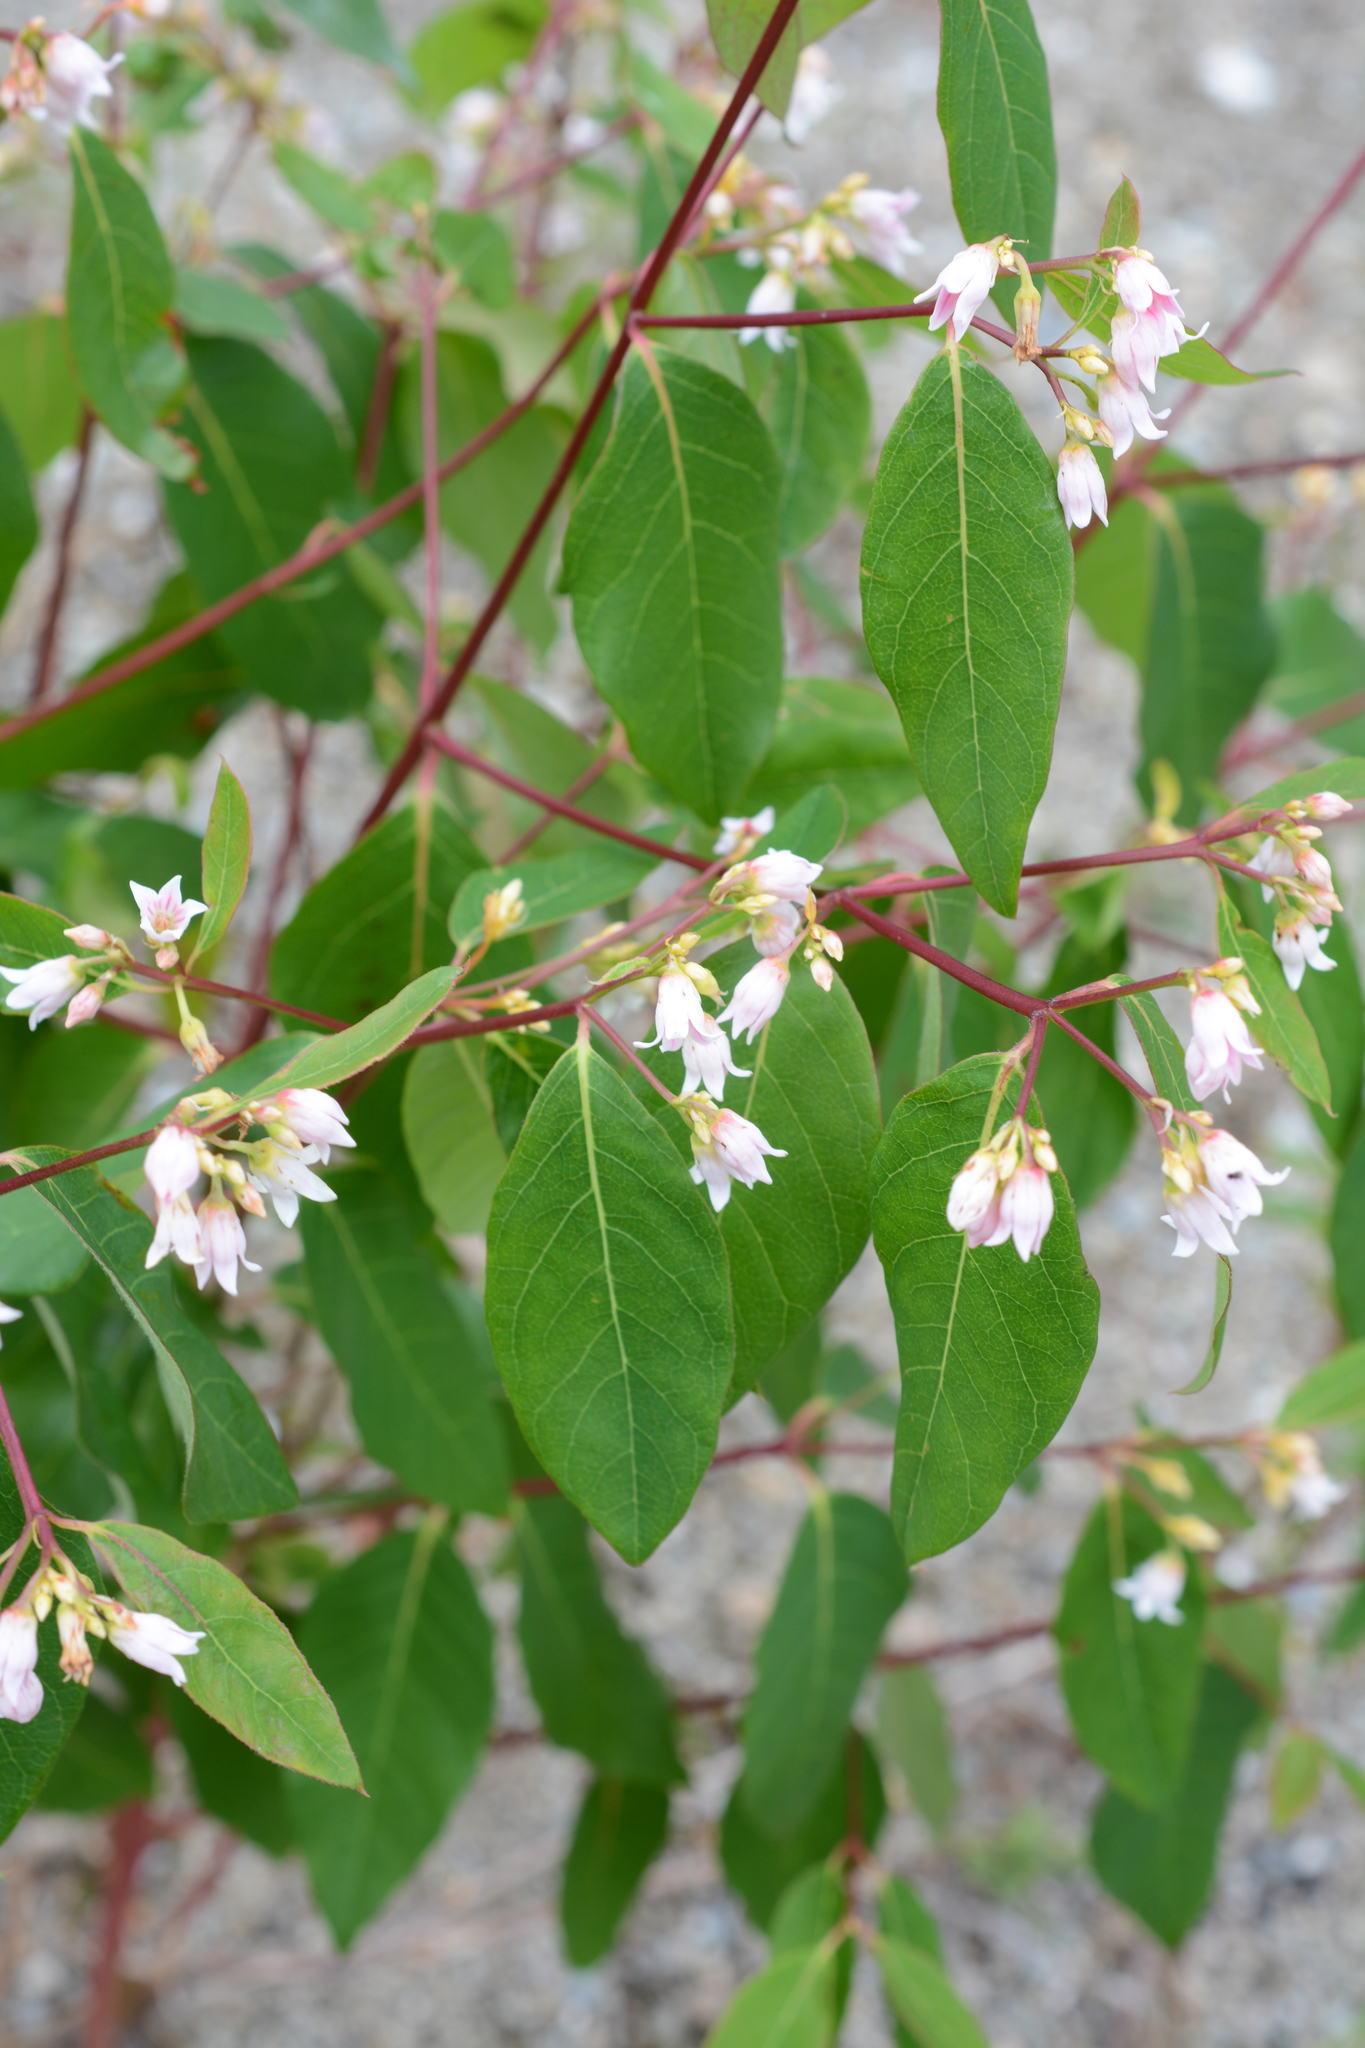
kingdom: Plantae
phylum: Tracheophyta
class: Magnoliopsida
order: Gentianales
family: Apocynaceae
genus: Apocynum
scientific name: Apocynum androsaemifolium
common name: Spreading dogbane
